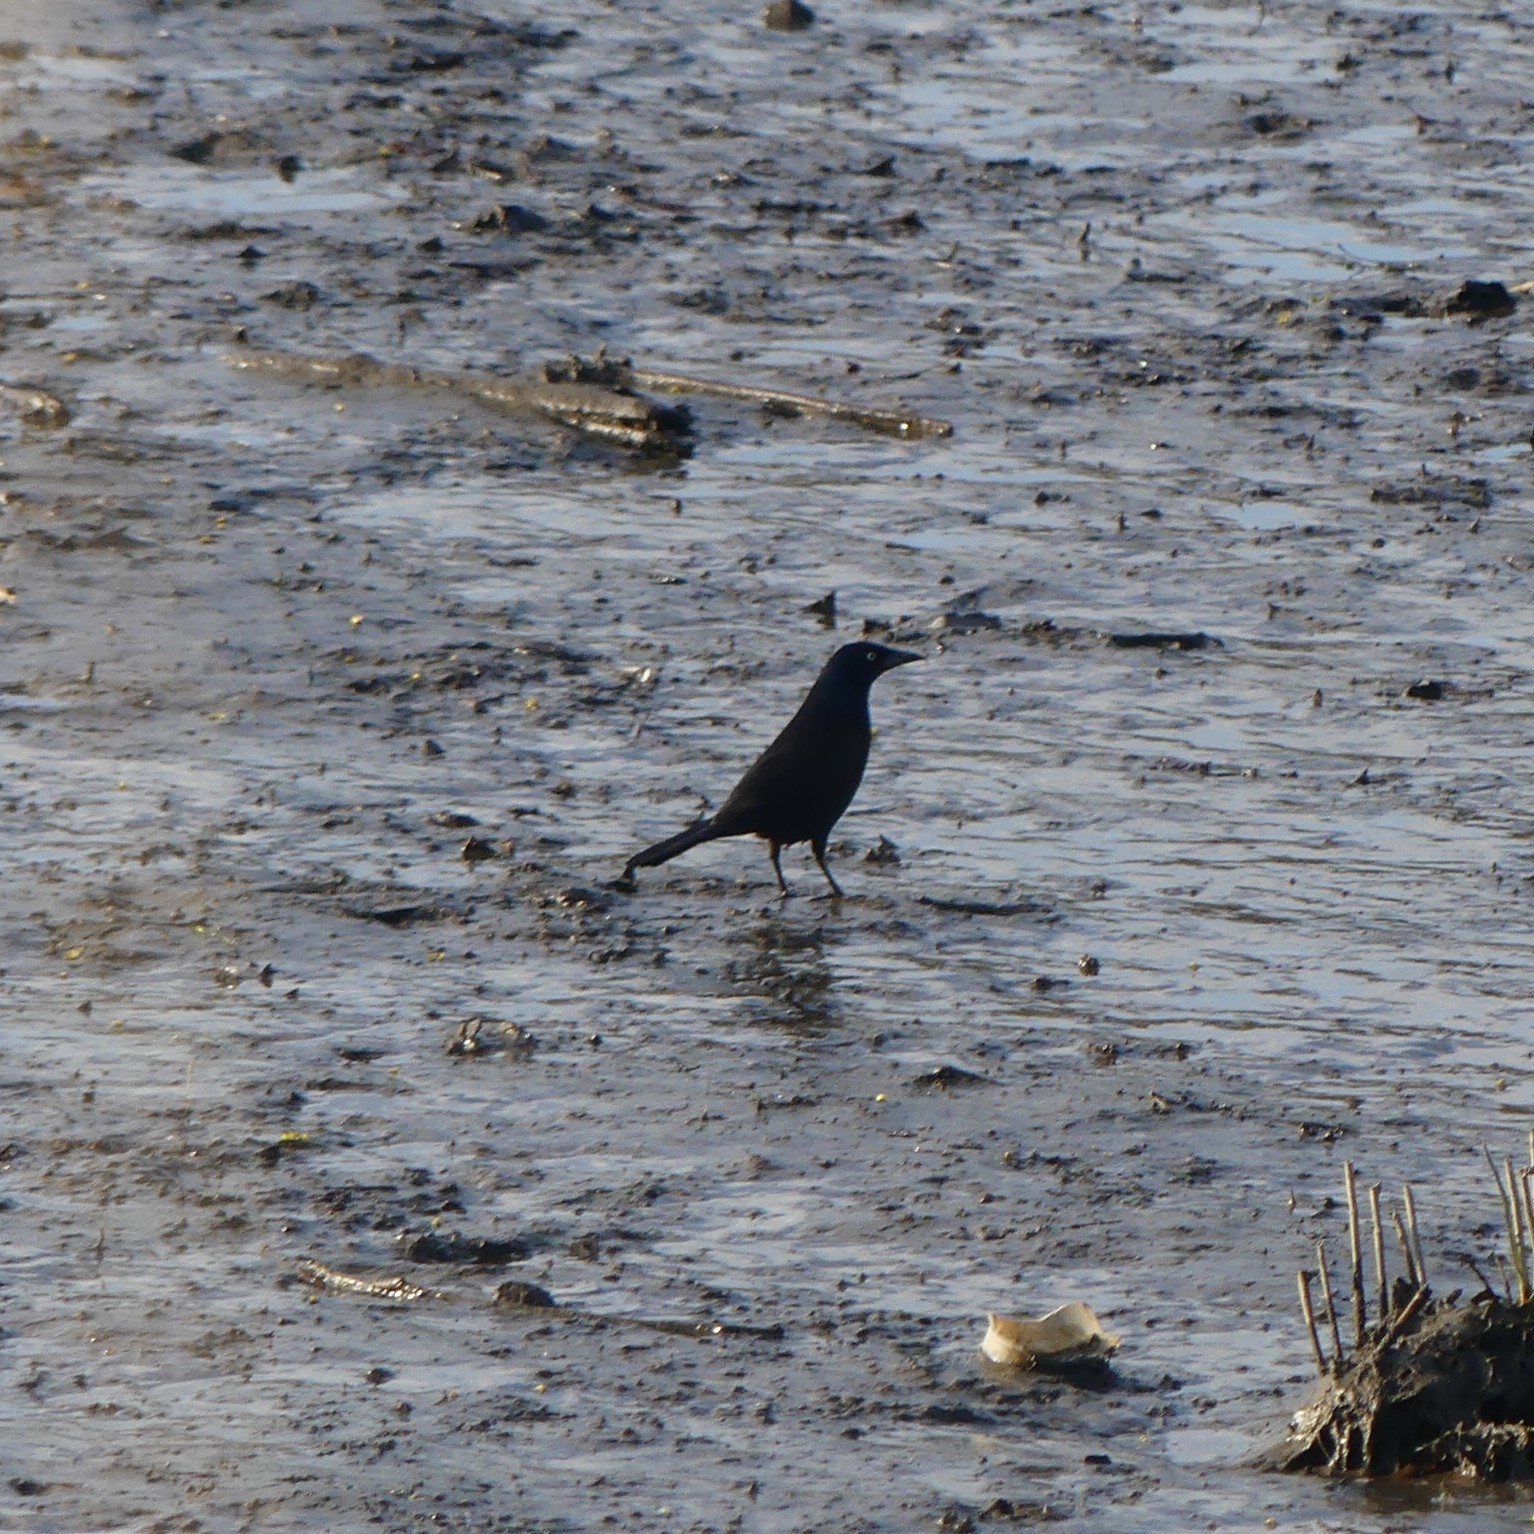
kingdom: Animalia
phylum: Chordata
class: Aves
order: Passeriformes
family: Icteridae
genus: Quiscalus
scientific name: Quiscalus quiscula
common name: Common grackle
